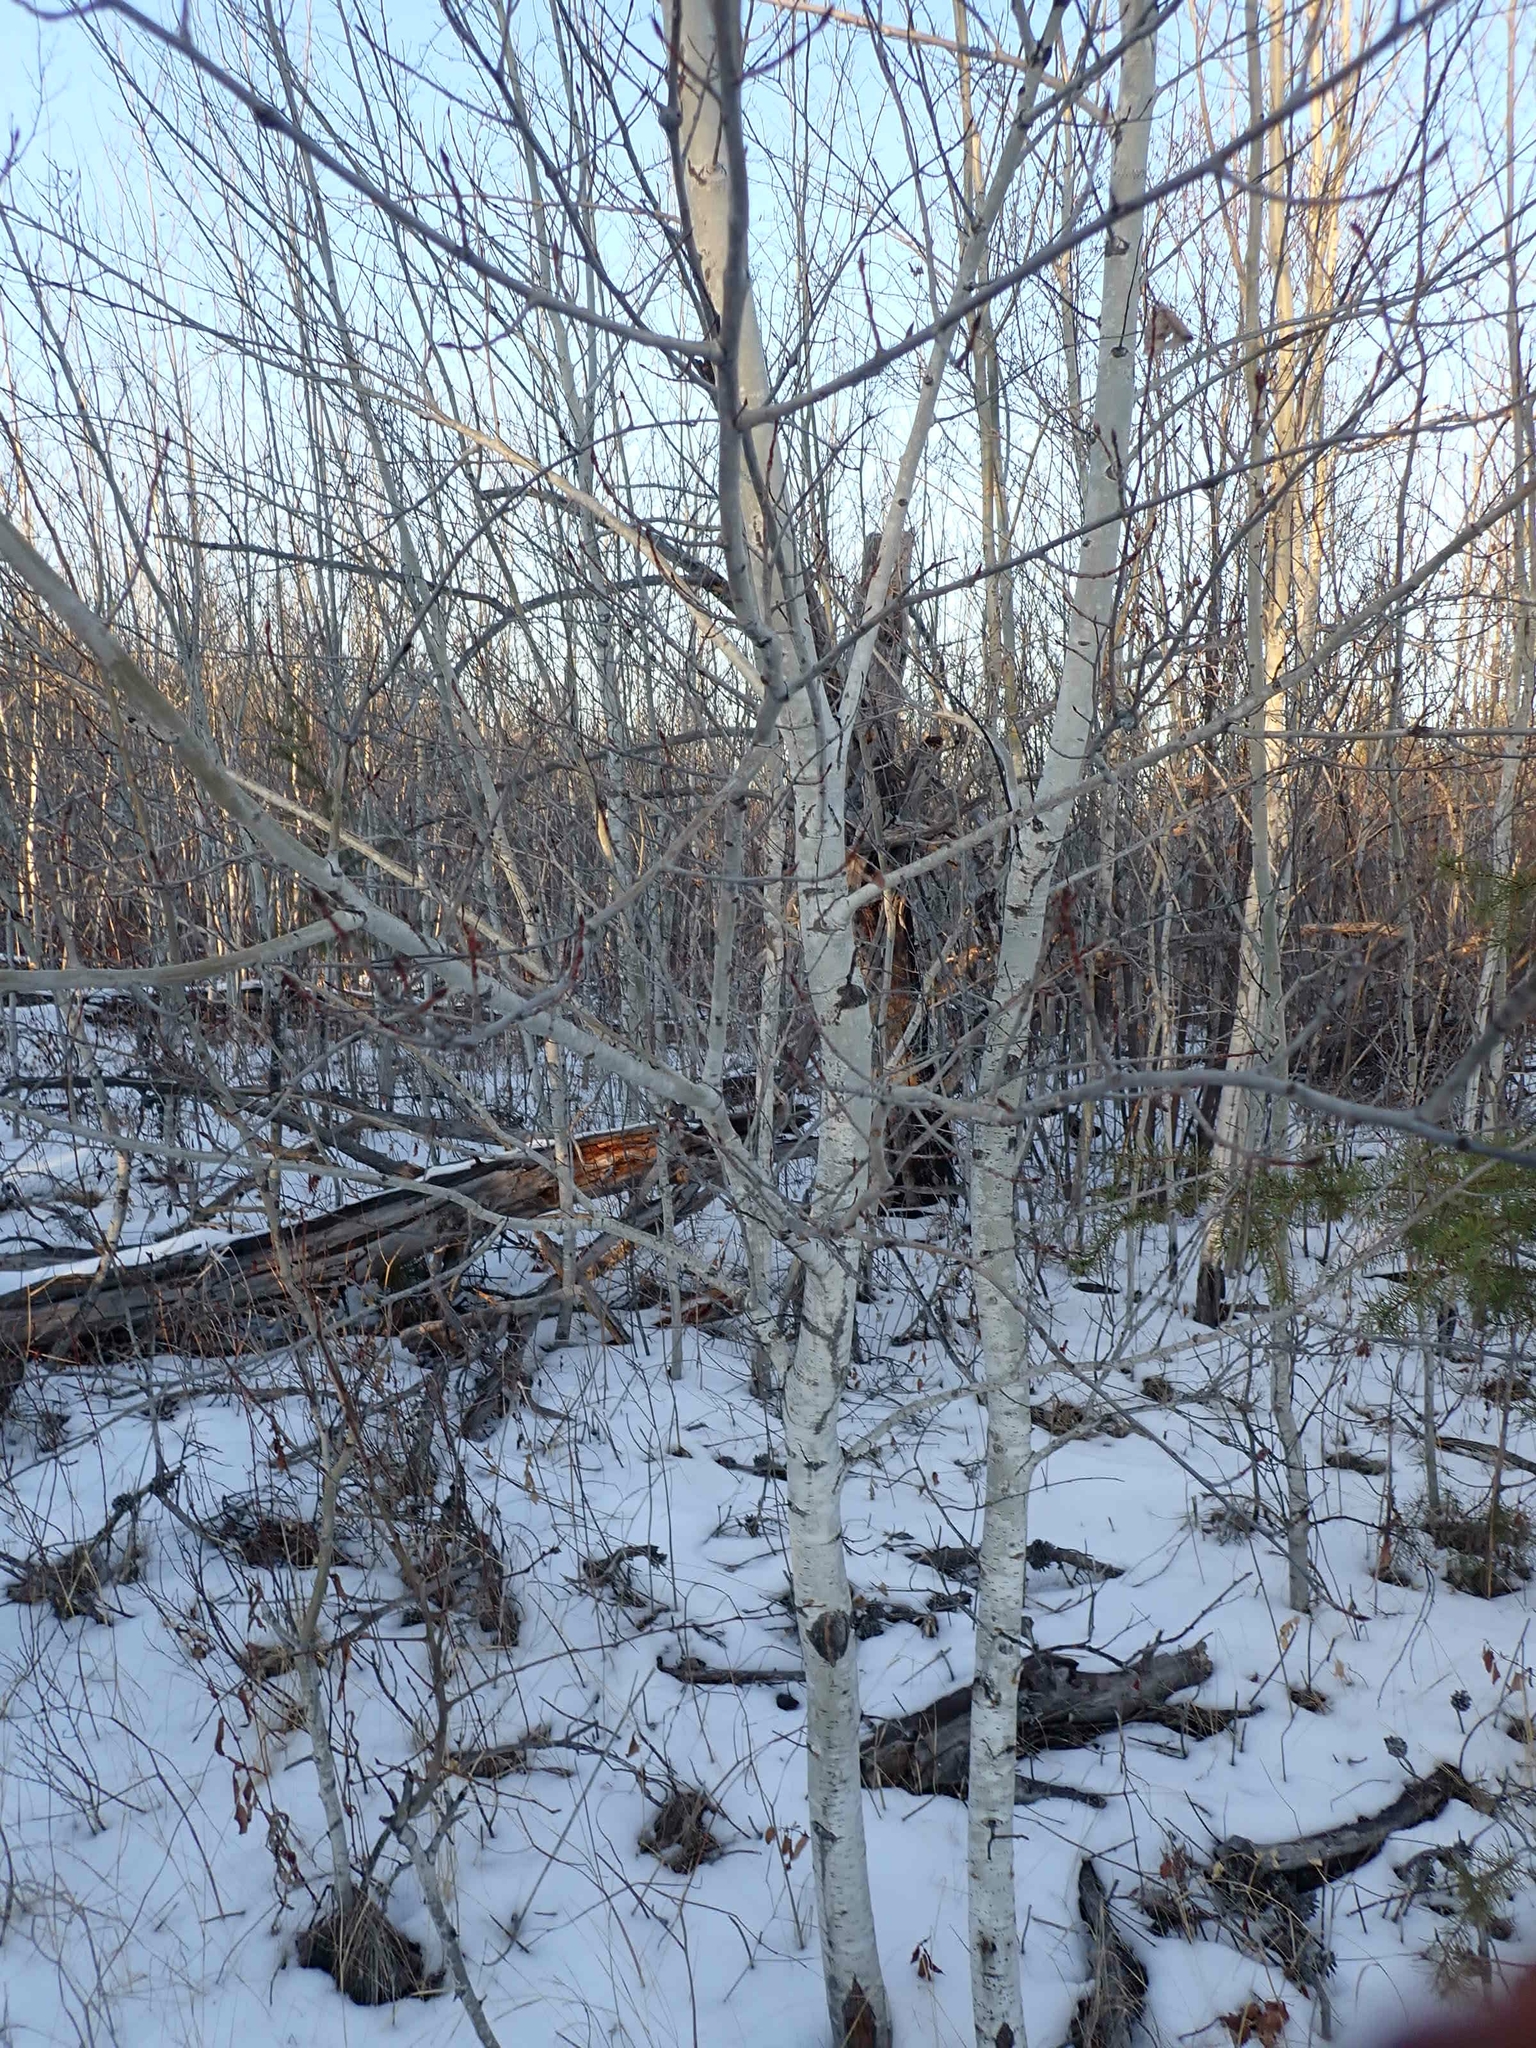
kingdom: Plantae
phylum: Tracheophyta
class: Magnoliopsida
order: Malpighiales
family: Salicaceae
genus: Populus
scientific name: Populus tremuloides
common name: Quaking aspen
